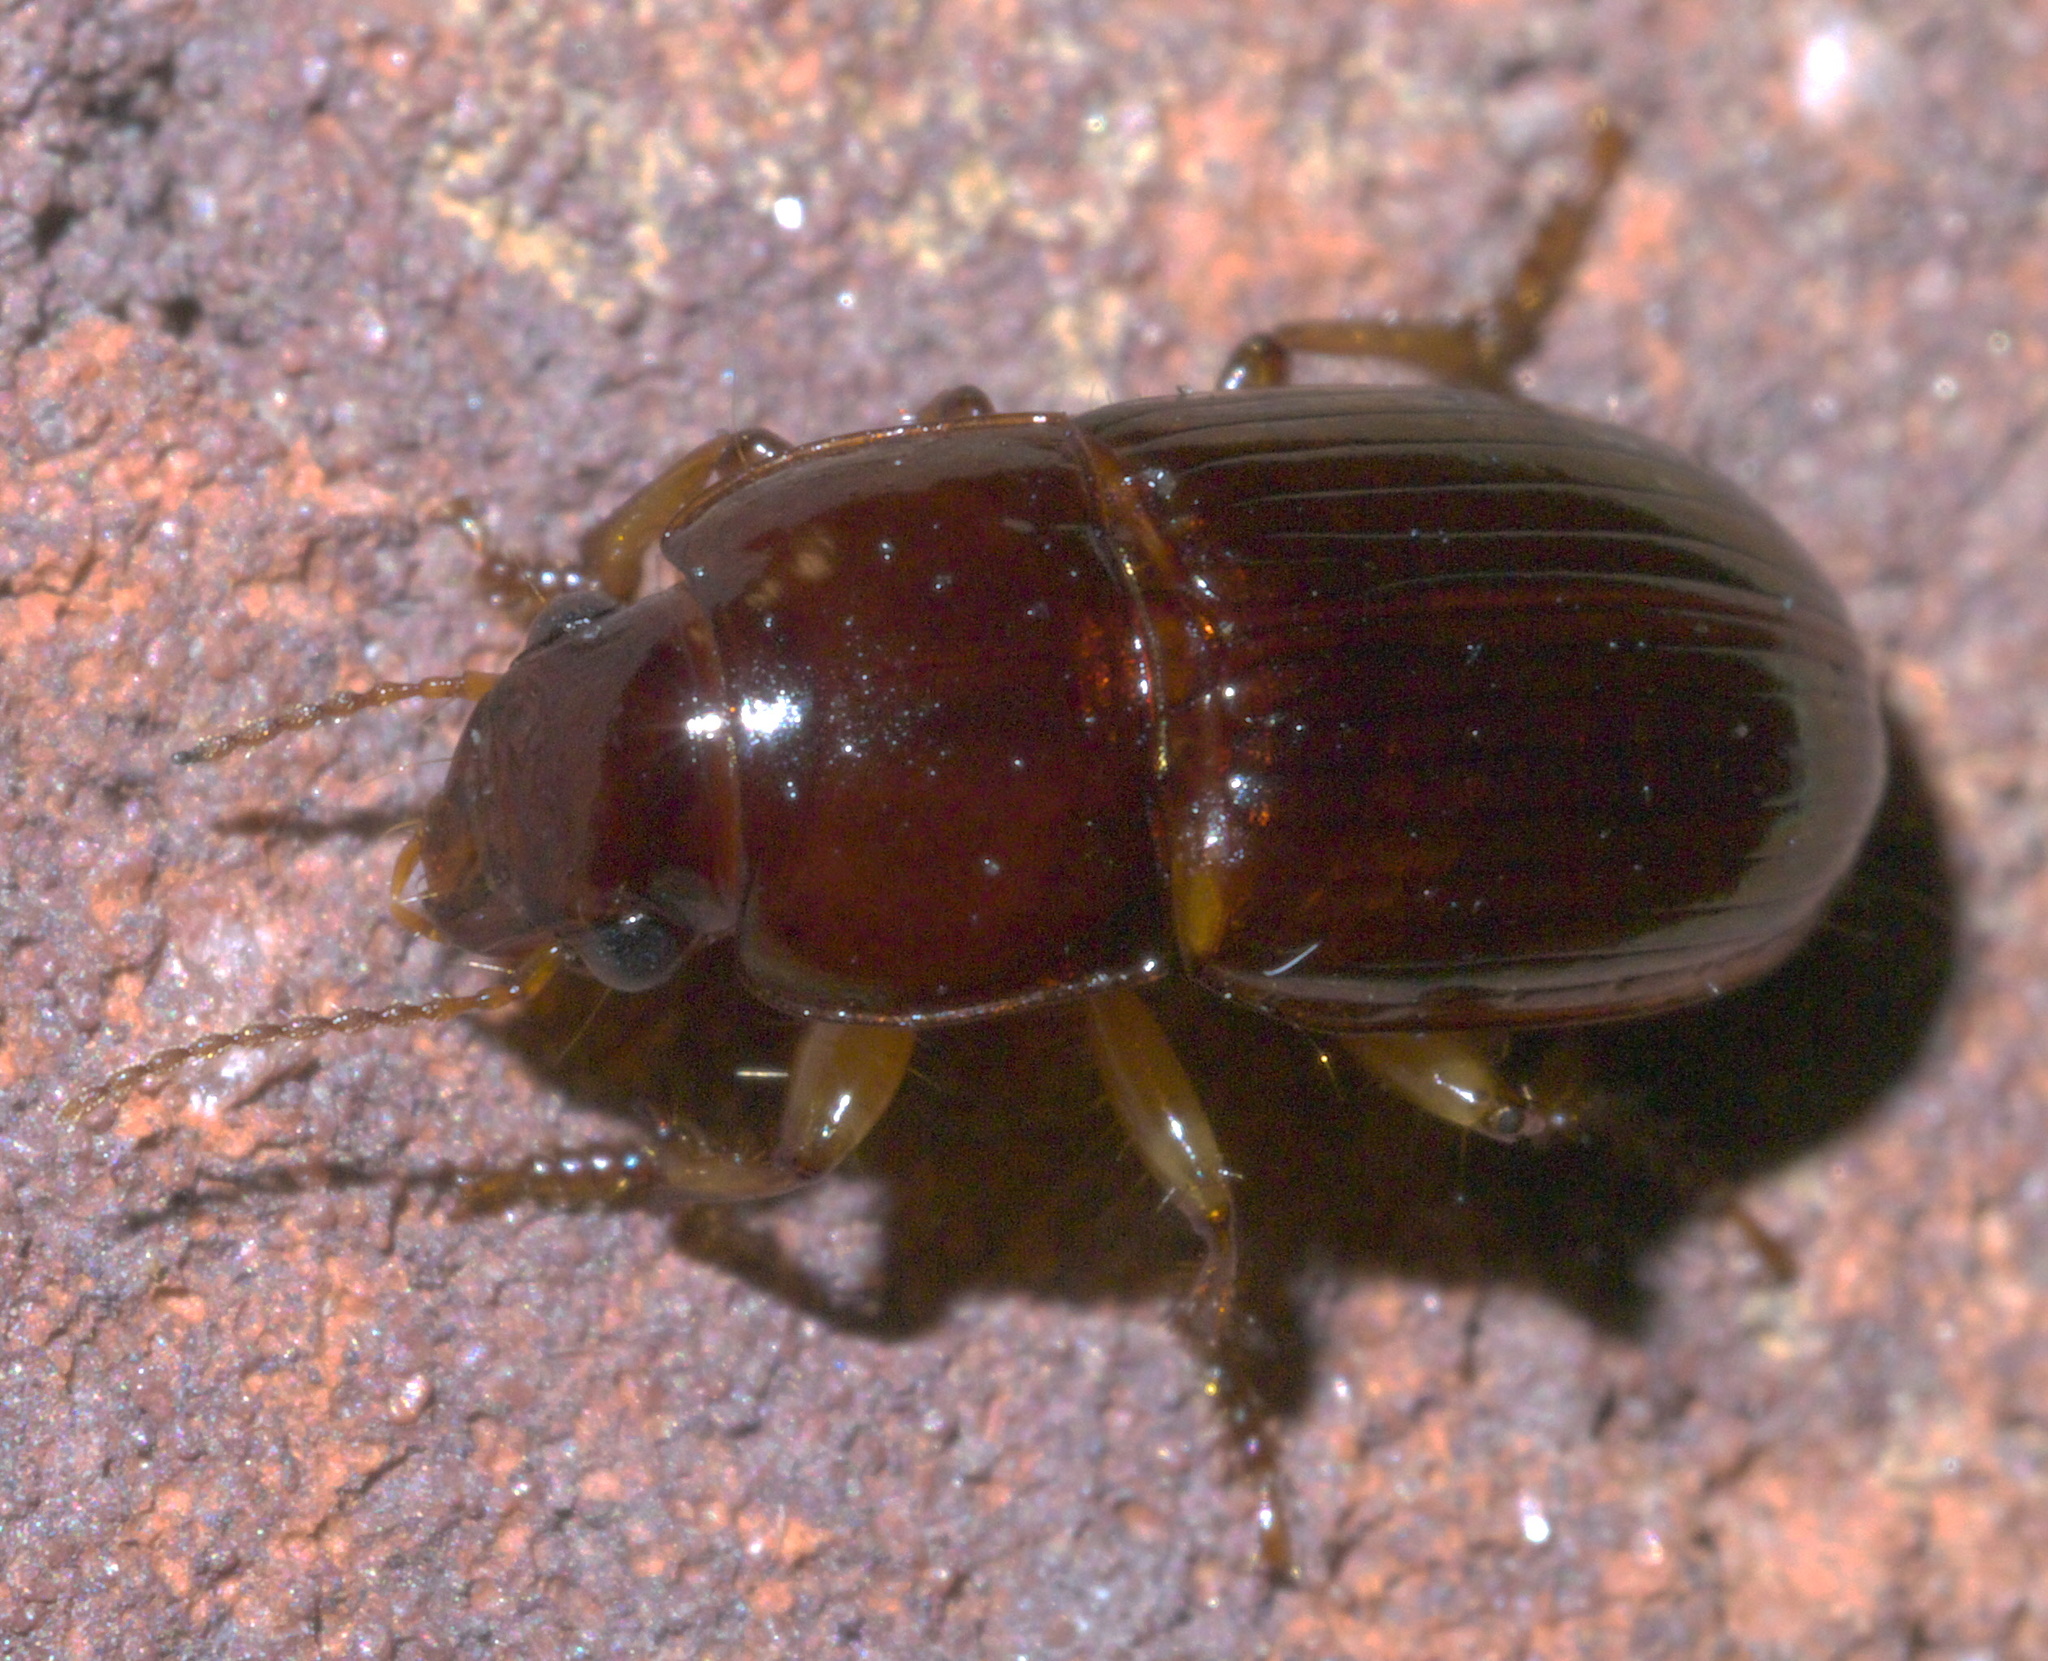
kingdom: Animalia
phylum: Arthropoda
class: Insecta
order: Coleoptera
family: Carabidae
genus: Harpalus
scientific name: Harpalus gravis
